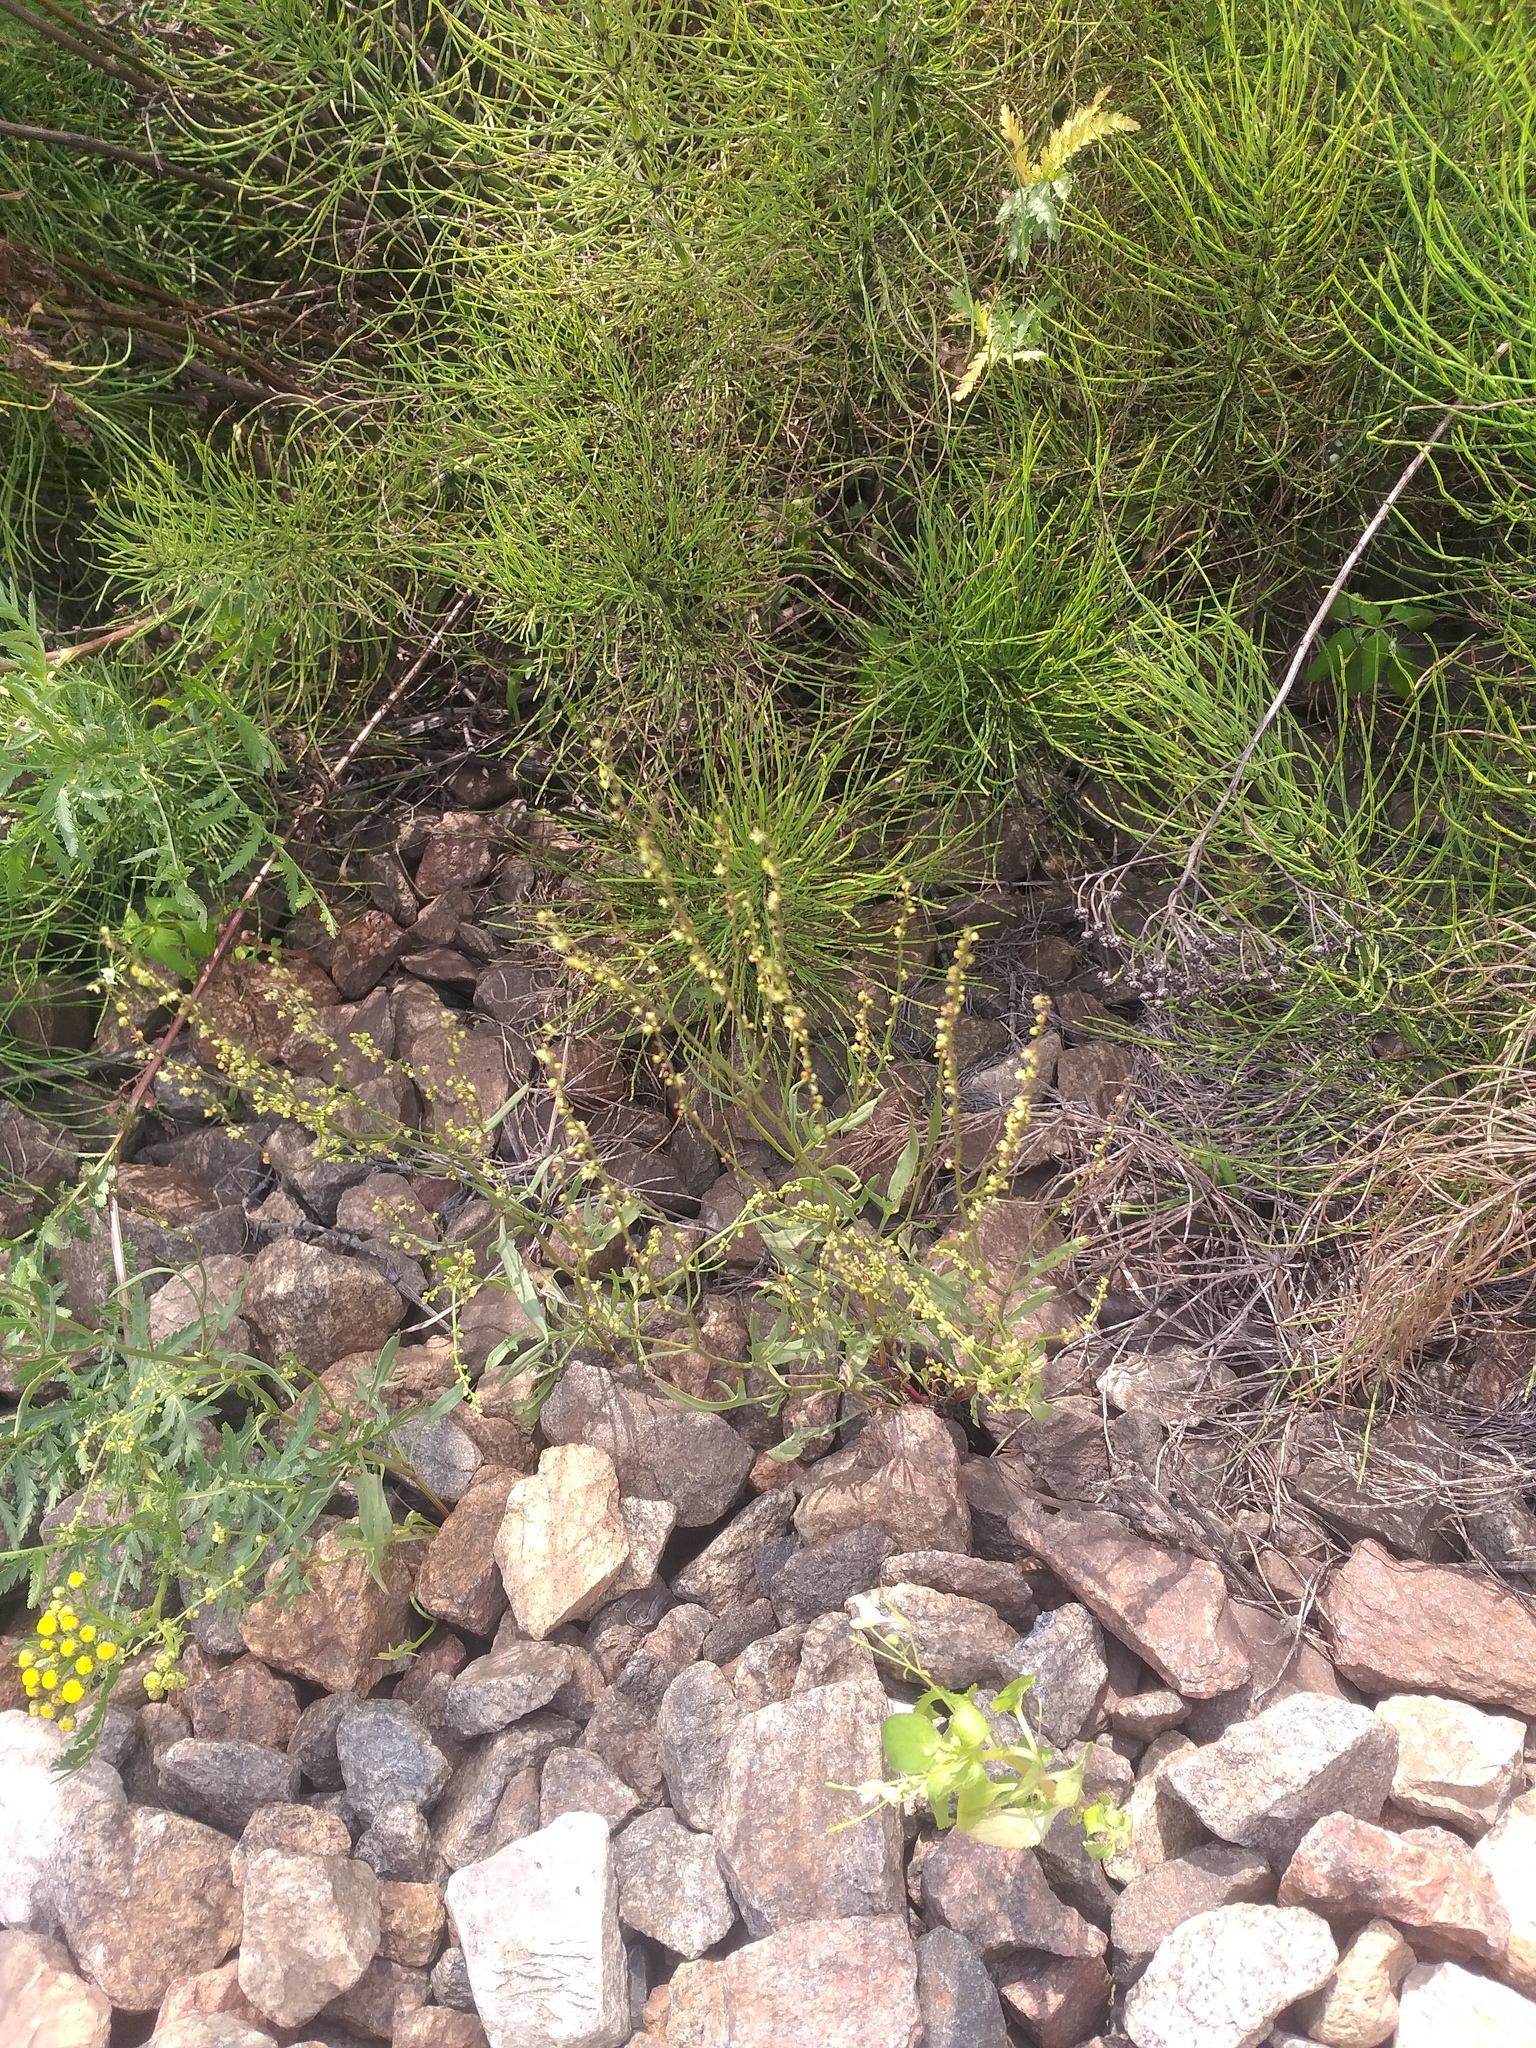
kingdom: Plantae
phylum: Tracheophyta
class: Magnoliopsida
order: Caryophyllales
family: Polygonaceae
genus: Rumex
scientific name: Rumex acetosella
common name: Common sheep sorrel
